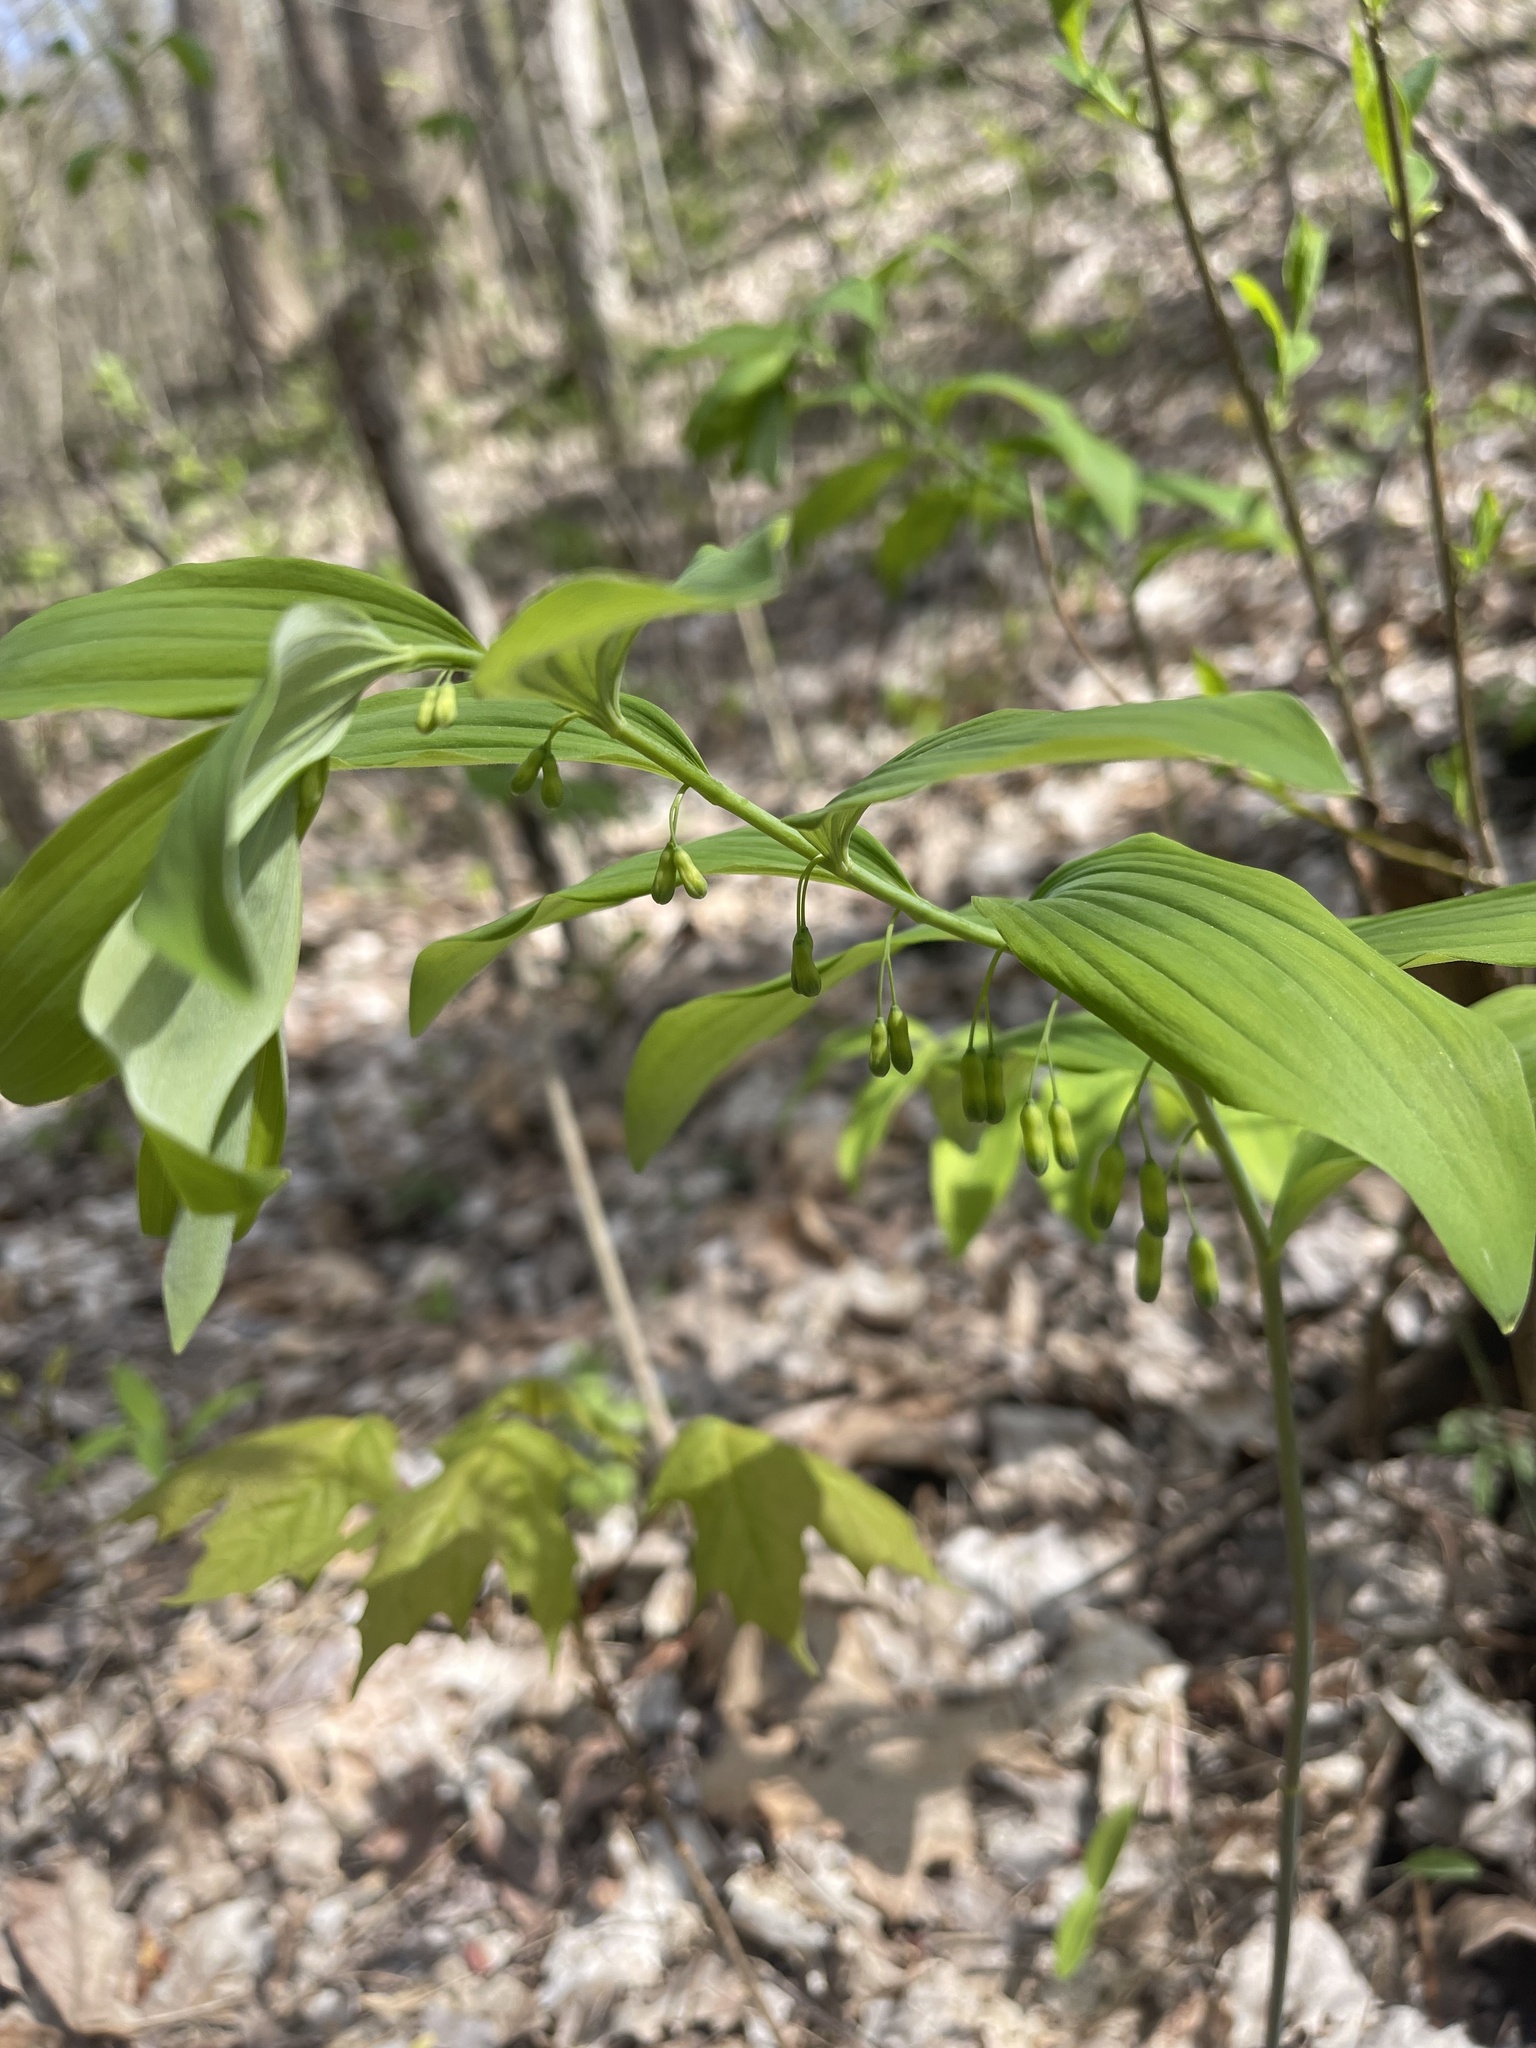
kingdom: Plantae
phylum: Tracheophyta
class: Liliopsida
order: Asparagales
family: Asparagaceae
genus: Polygonatum
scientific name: Polygonatum pubescens
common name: Downy solomon's seal
